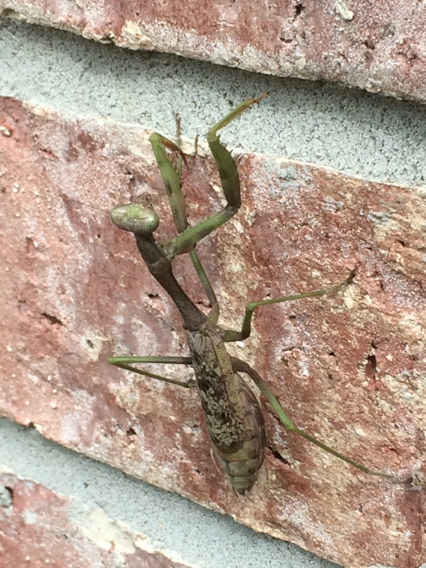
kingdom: Animalia
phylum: Arthropoda
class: Insecta
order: Mantodea
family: Mantidae
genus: Stagmomantis
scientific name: Stagmomantis carolina
